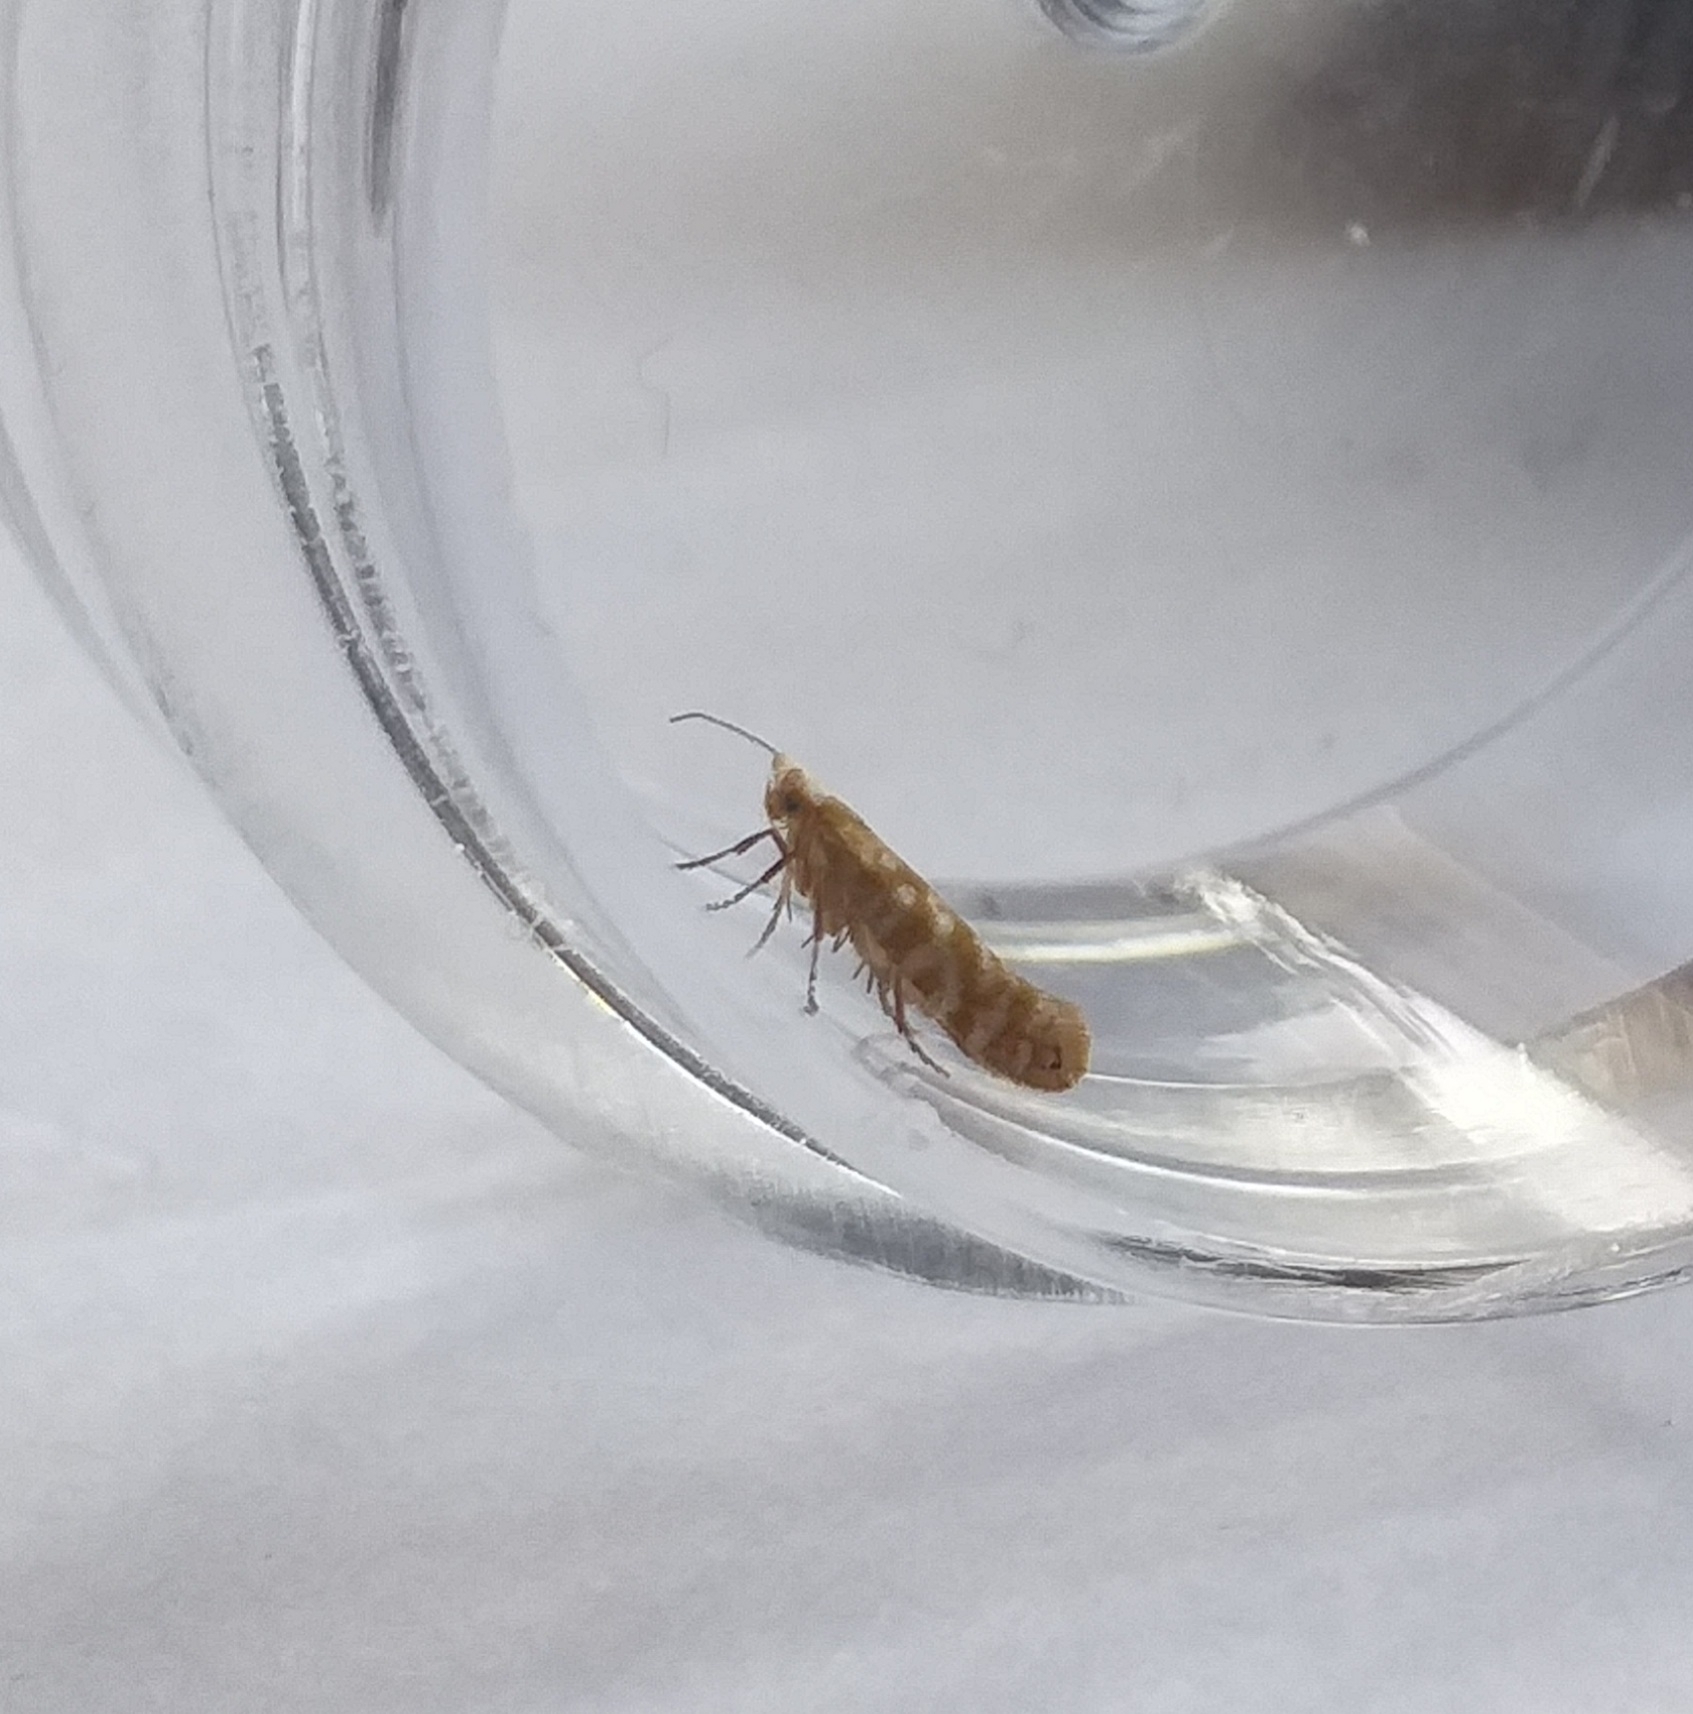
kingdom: Animalia
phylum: Arthropoda
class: Insecta
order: Lepidoptera
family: Argyresthiidae
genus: Argyresthia
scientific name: Argyresthia cupressella
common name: Cypress tip moth
